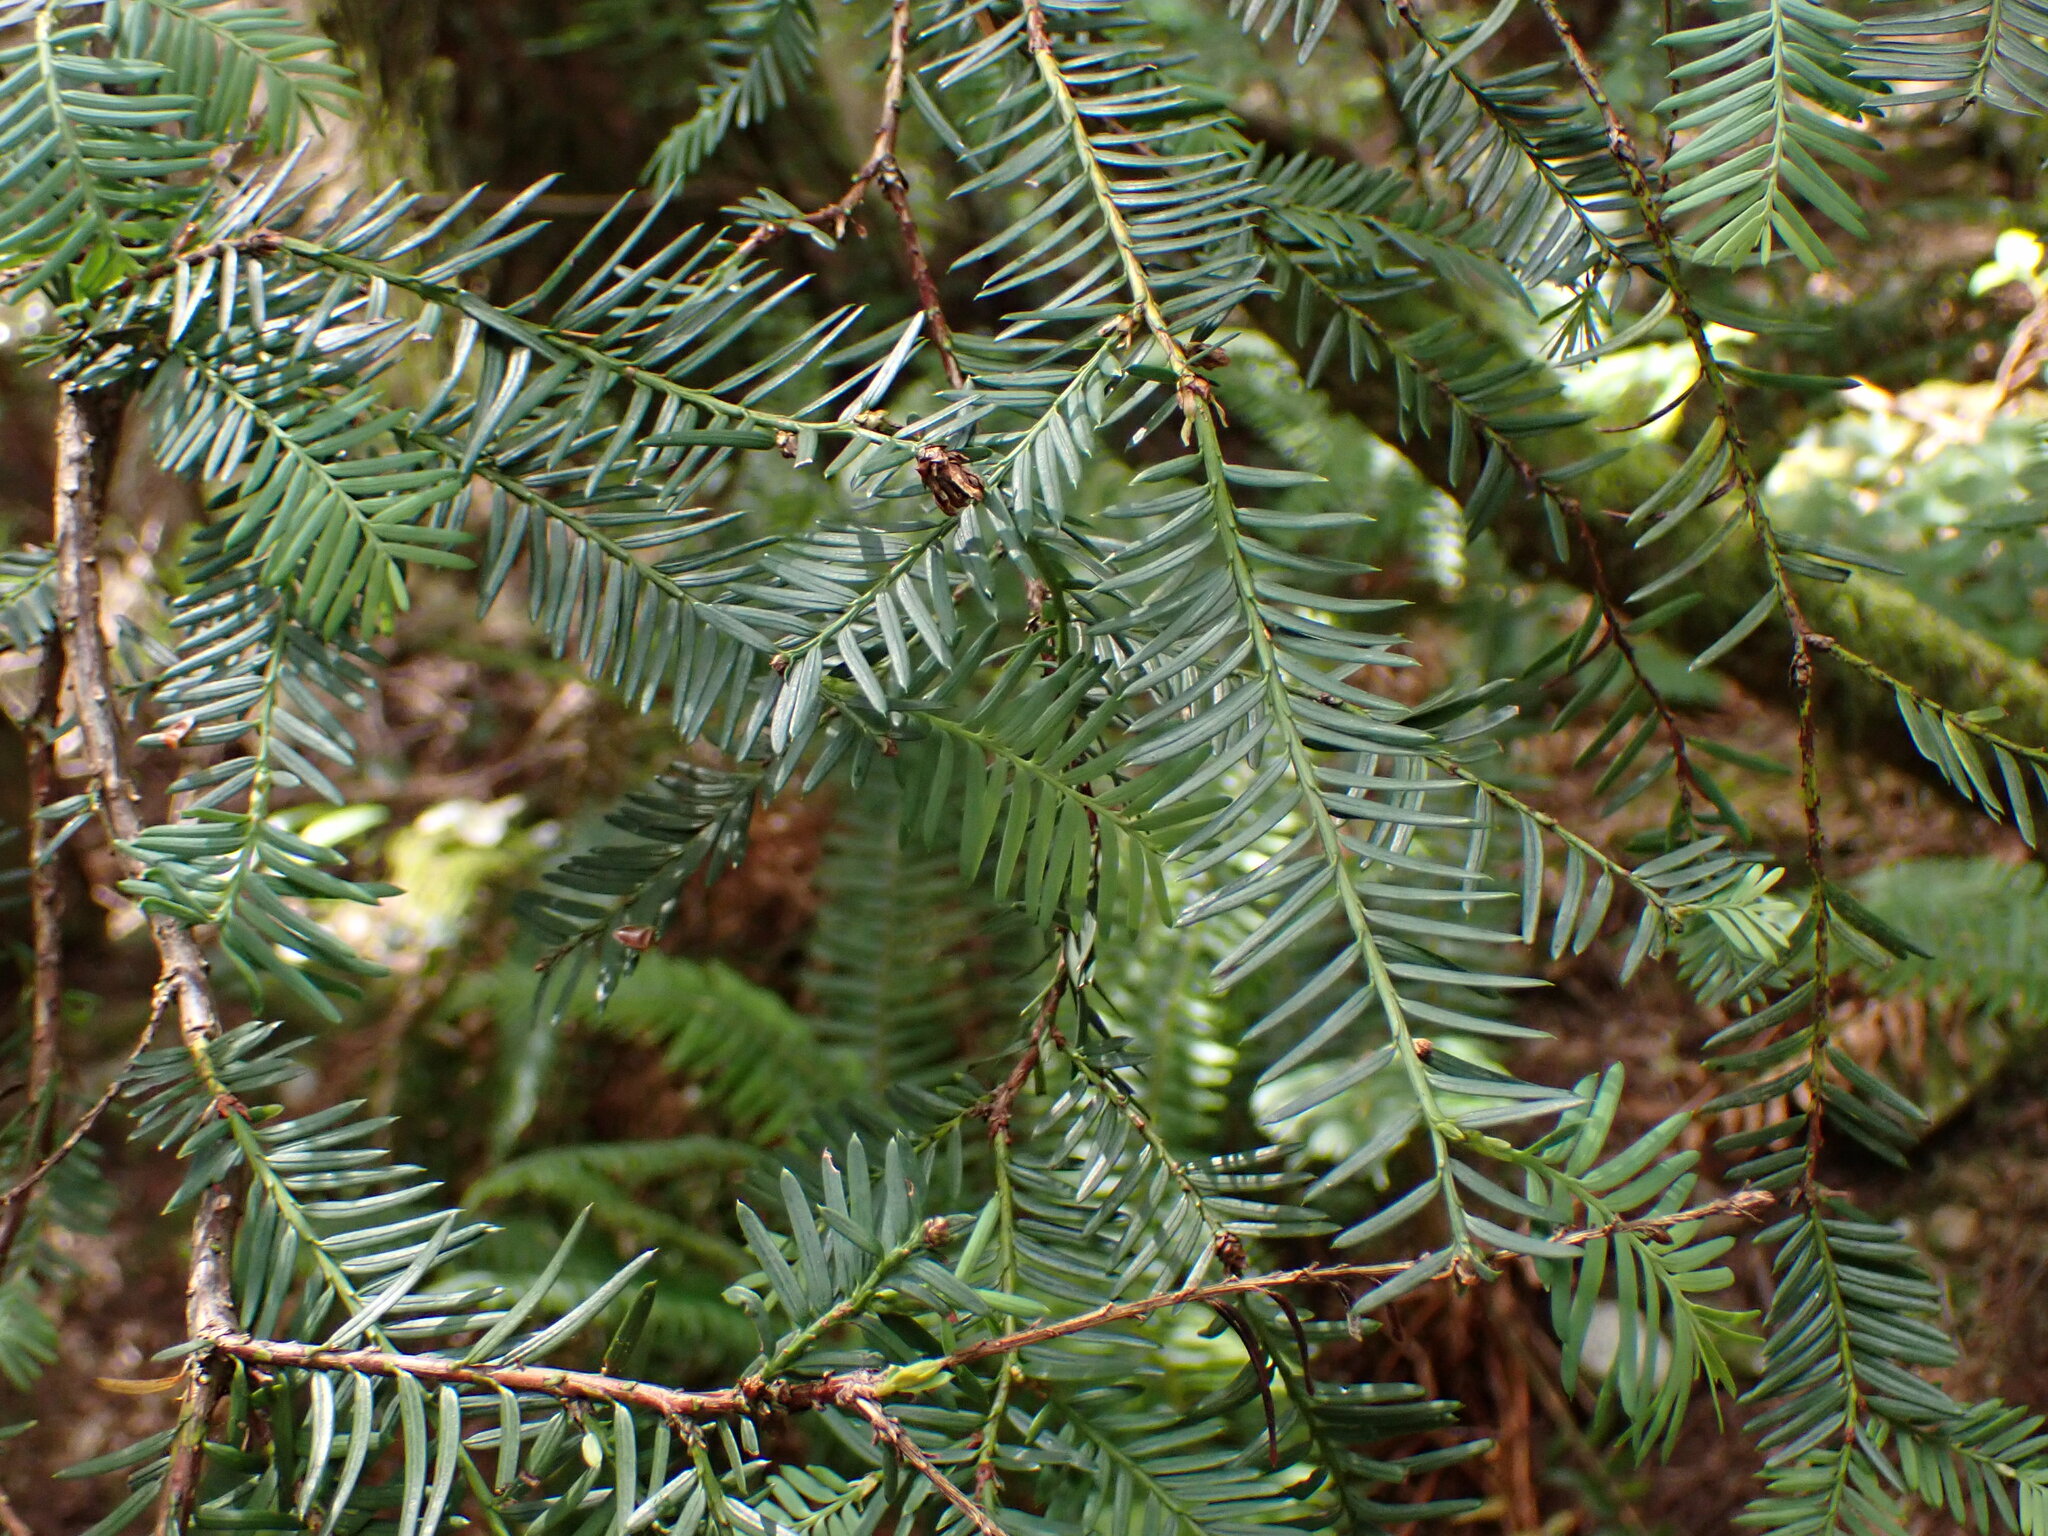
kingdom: Plantae
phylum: Tracheophyta
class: Pinopsida
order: Pinales
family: Taxaceae
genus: Taxus
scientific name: Taxus brevifolia
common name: Pacific yew
